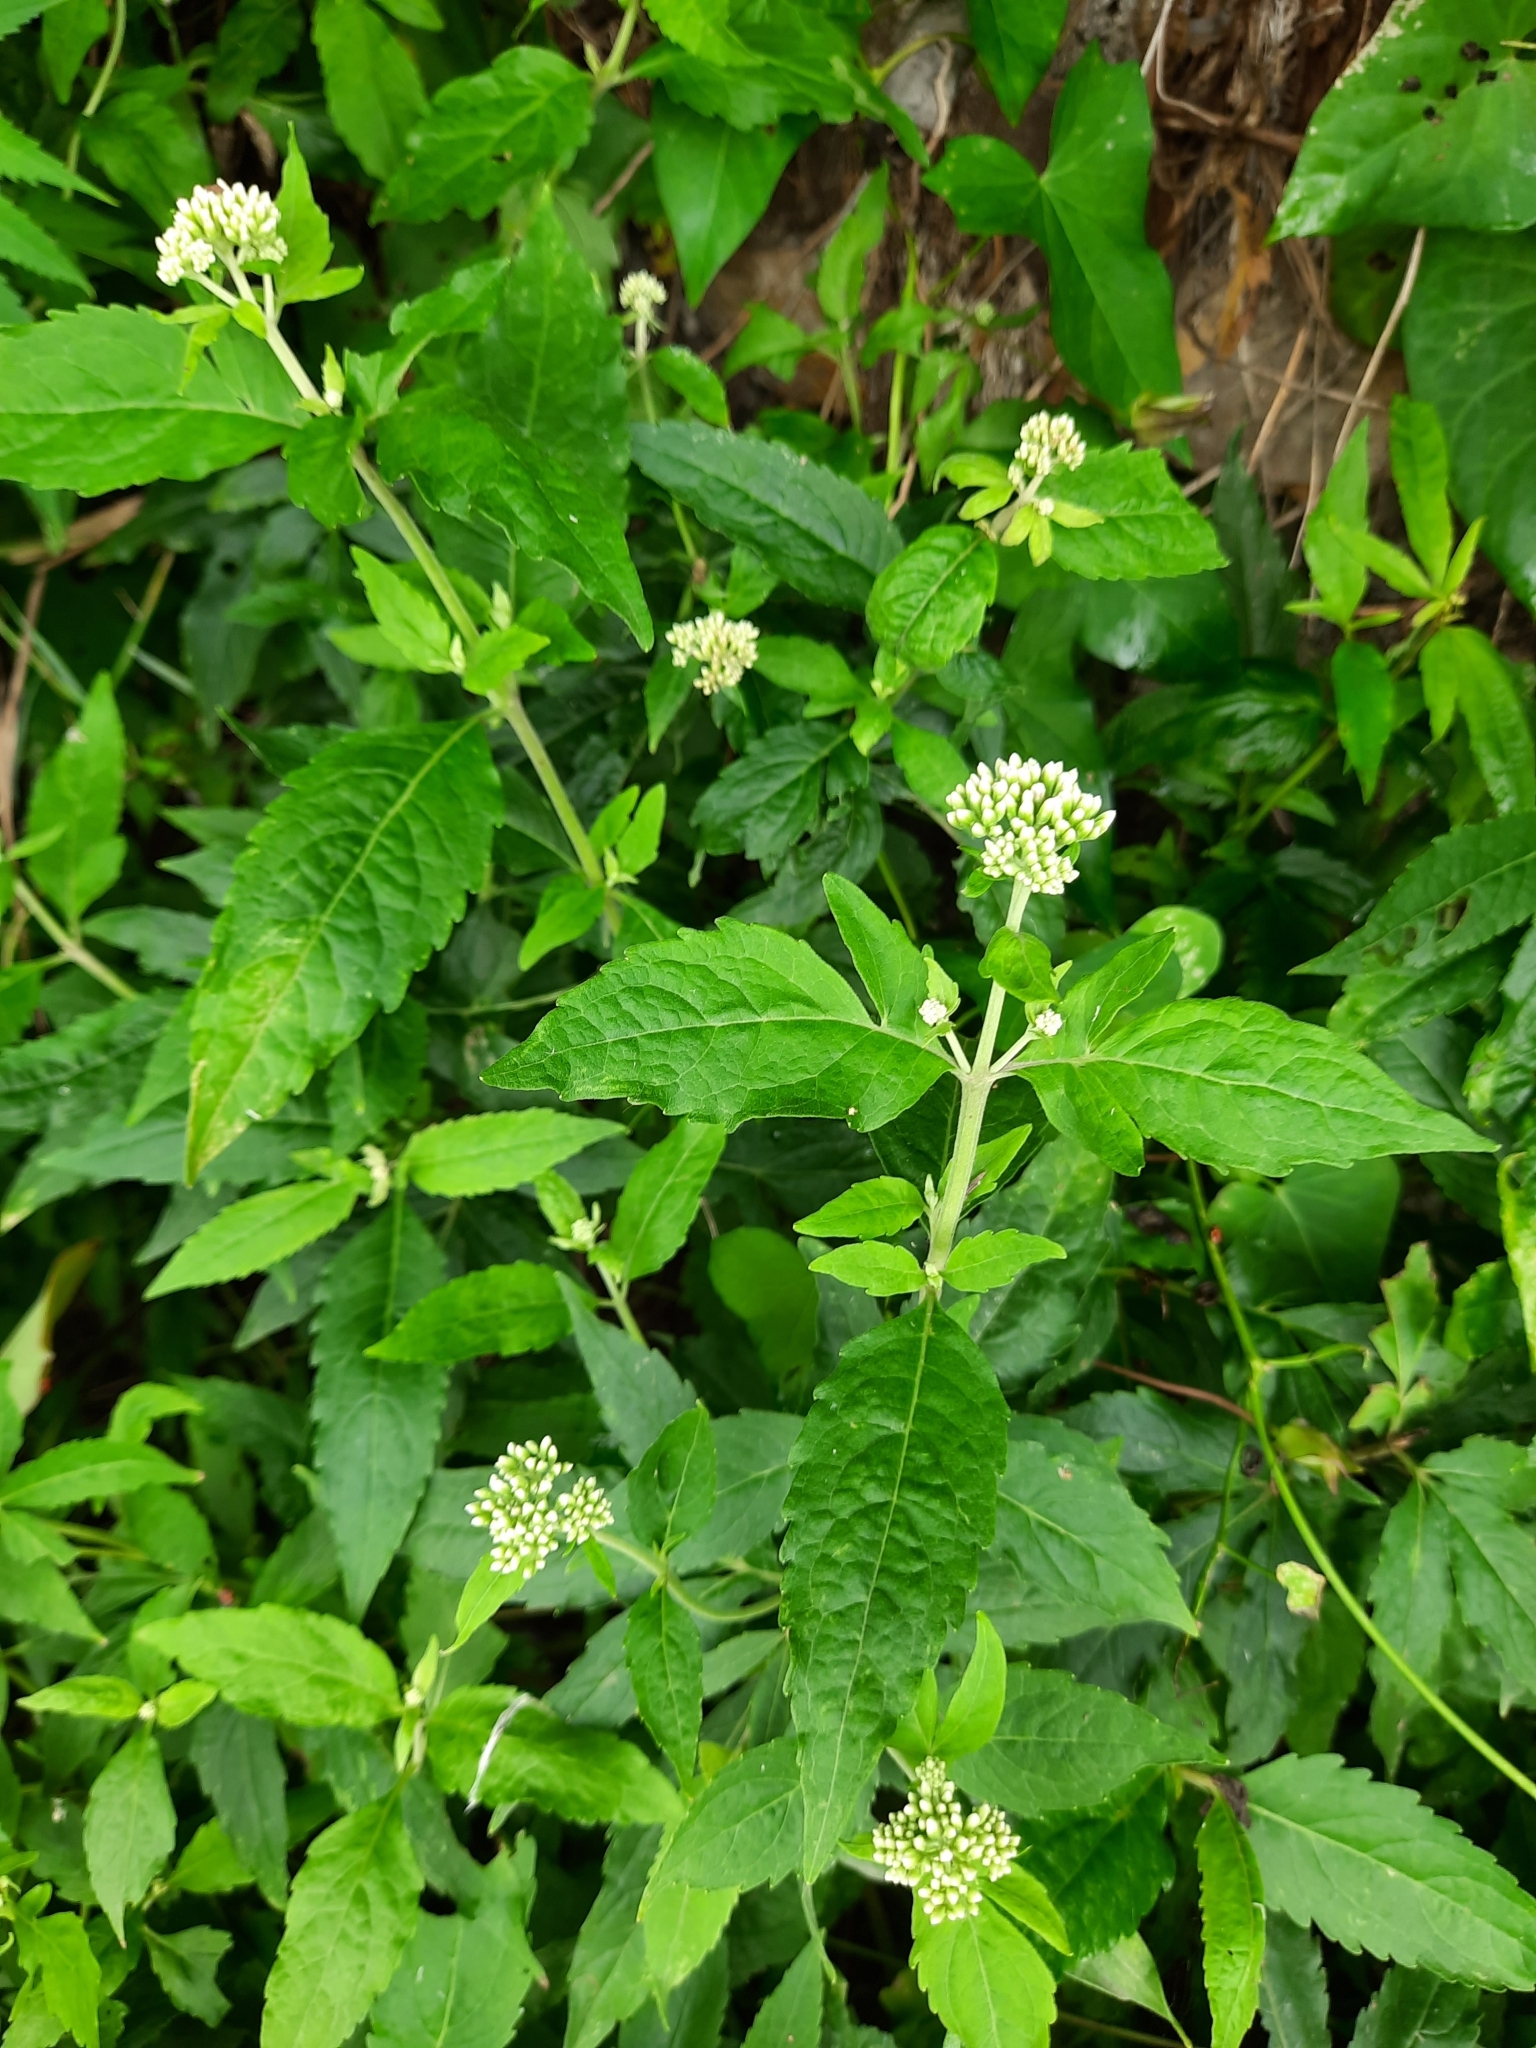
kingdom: Plantae
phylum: Tracheophyta
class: Magnoliopsida
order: Asterales
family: Asteraceae
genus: Eupatorium
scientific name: Eupatorium cannabinum
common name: Hemp-agrimony
